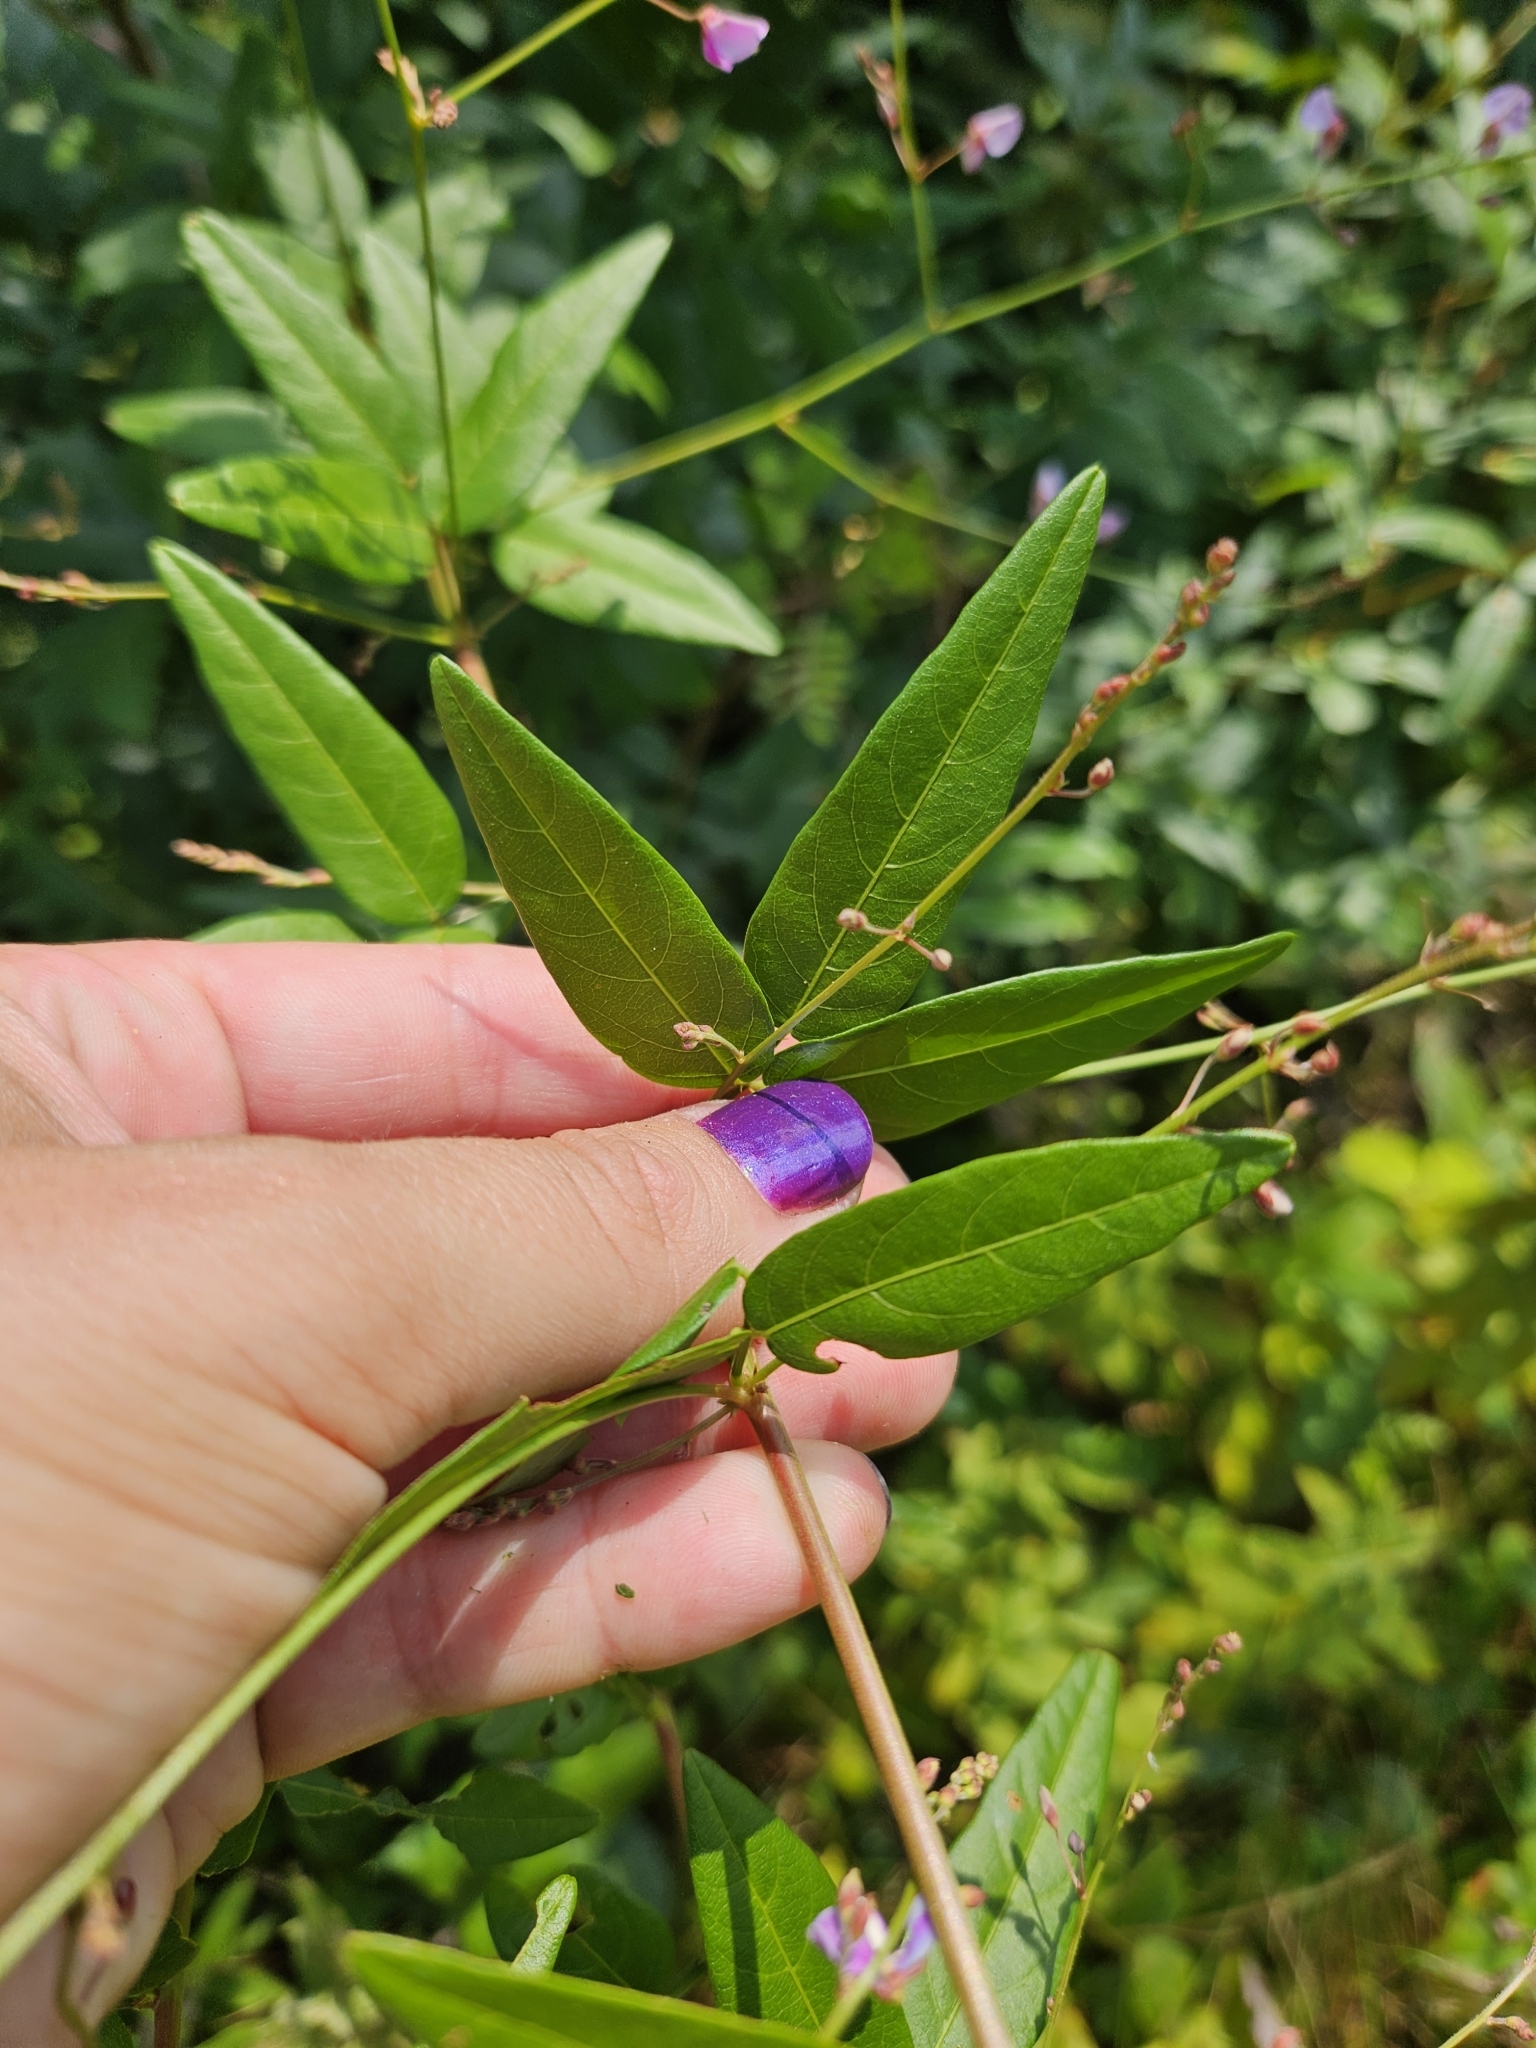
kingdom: Plantae
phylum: Tracheophyta
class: Magnoliopsida
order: Fabales
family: Fabaceae
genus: Desmodium
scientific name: Desmodium paniculatum
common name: Panicled tick-clover
